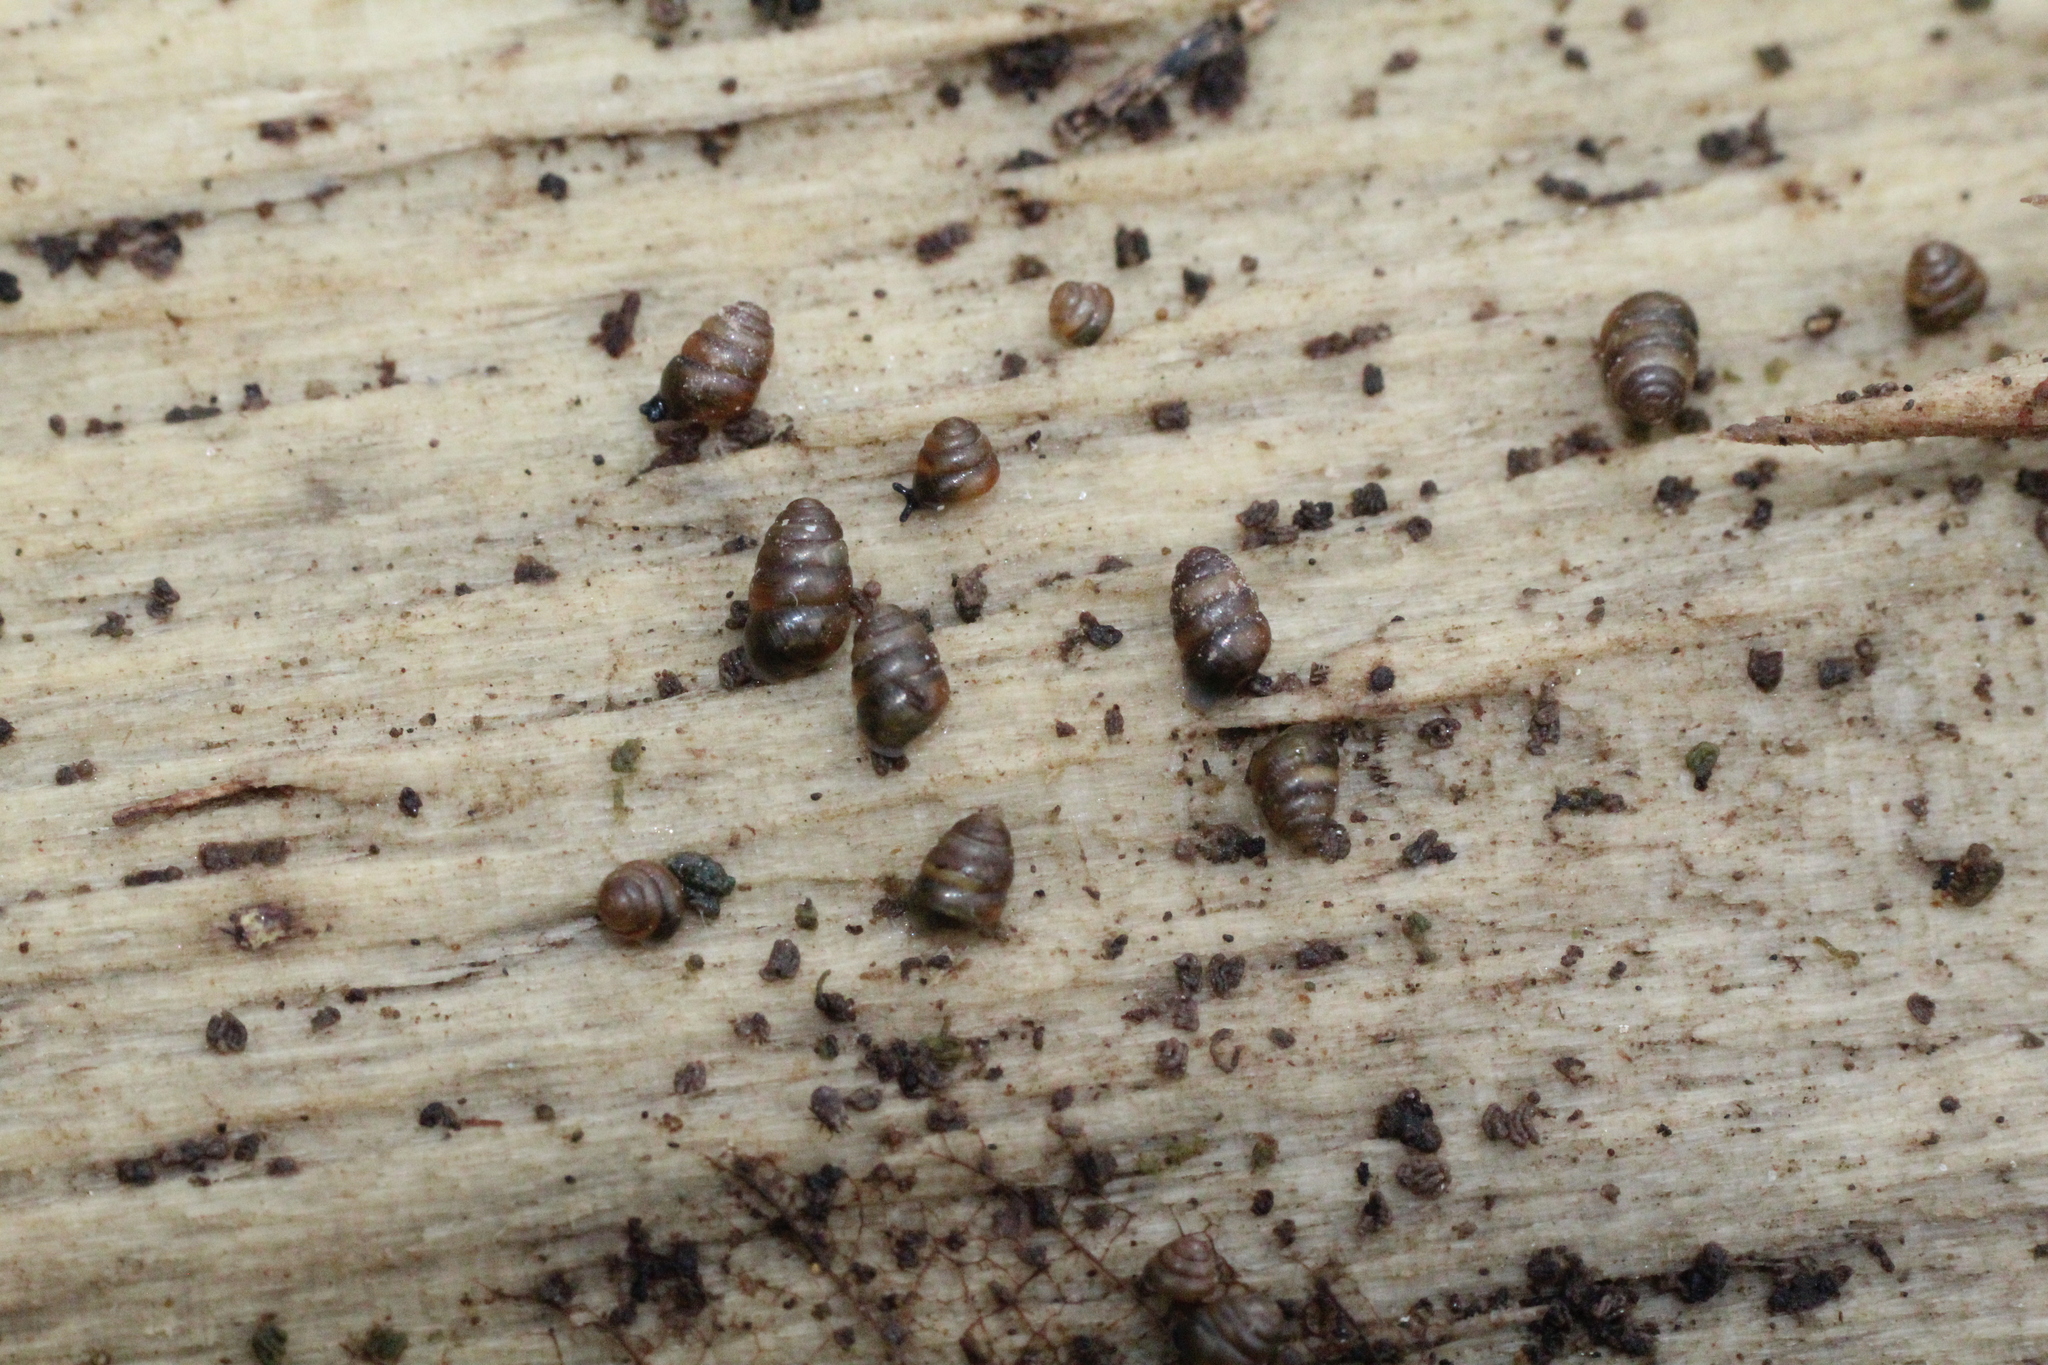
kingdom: Animalia
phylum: Mollusca
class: Gastropoda
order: Stylommatophora
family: Lauriidae
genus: Lauria
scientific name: Lauria cylindracea
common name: Common chrysalis snail
